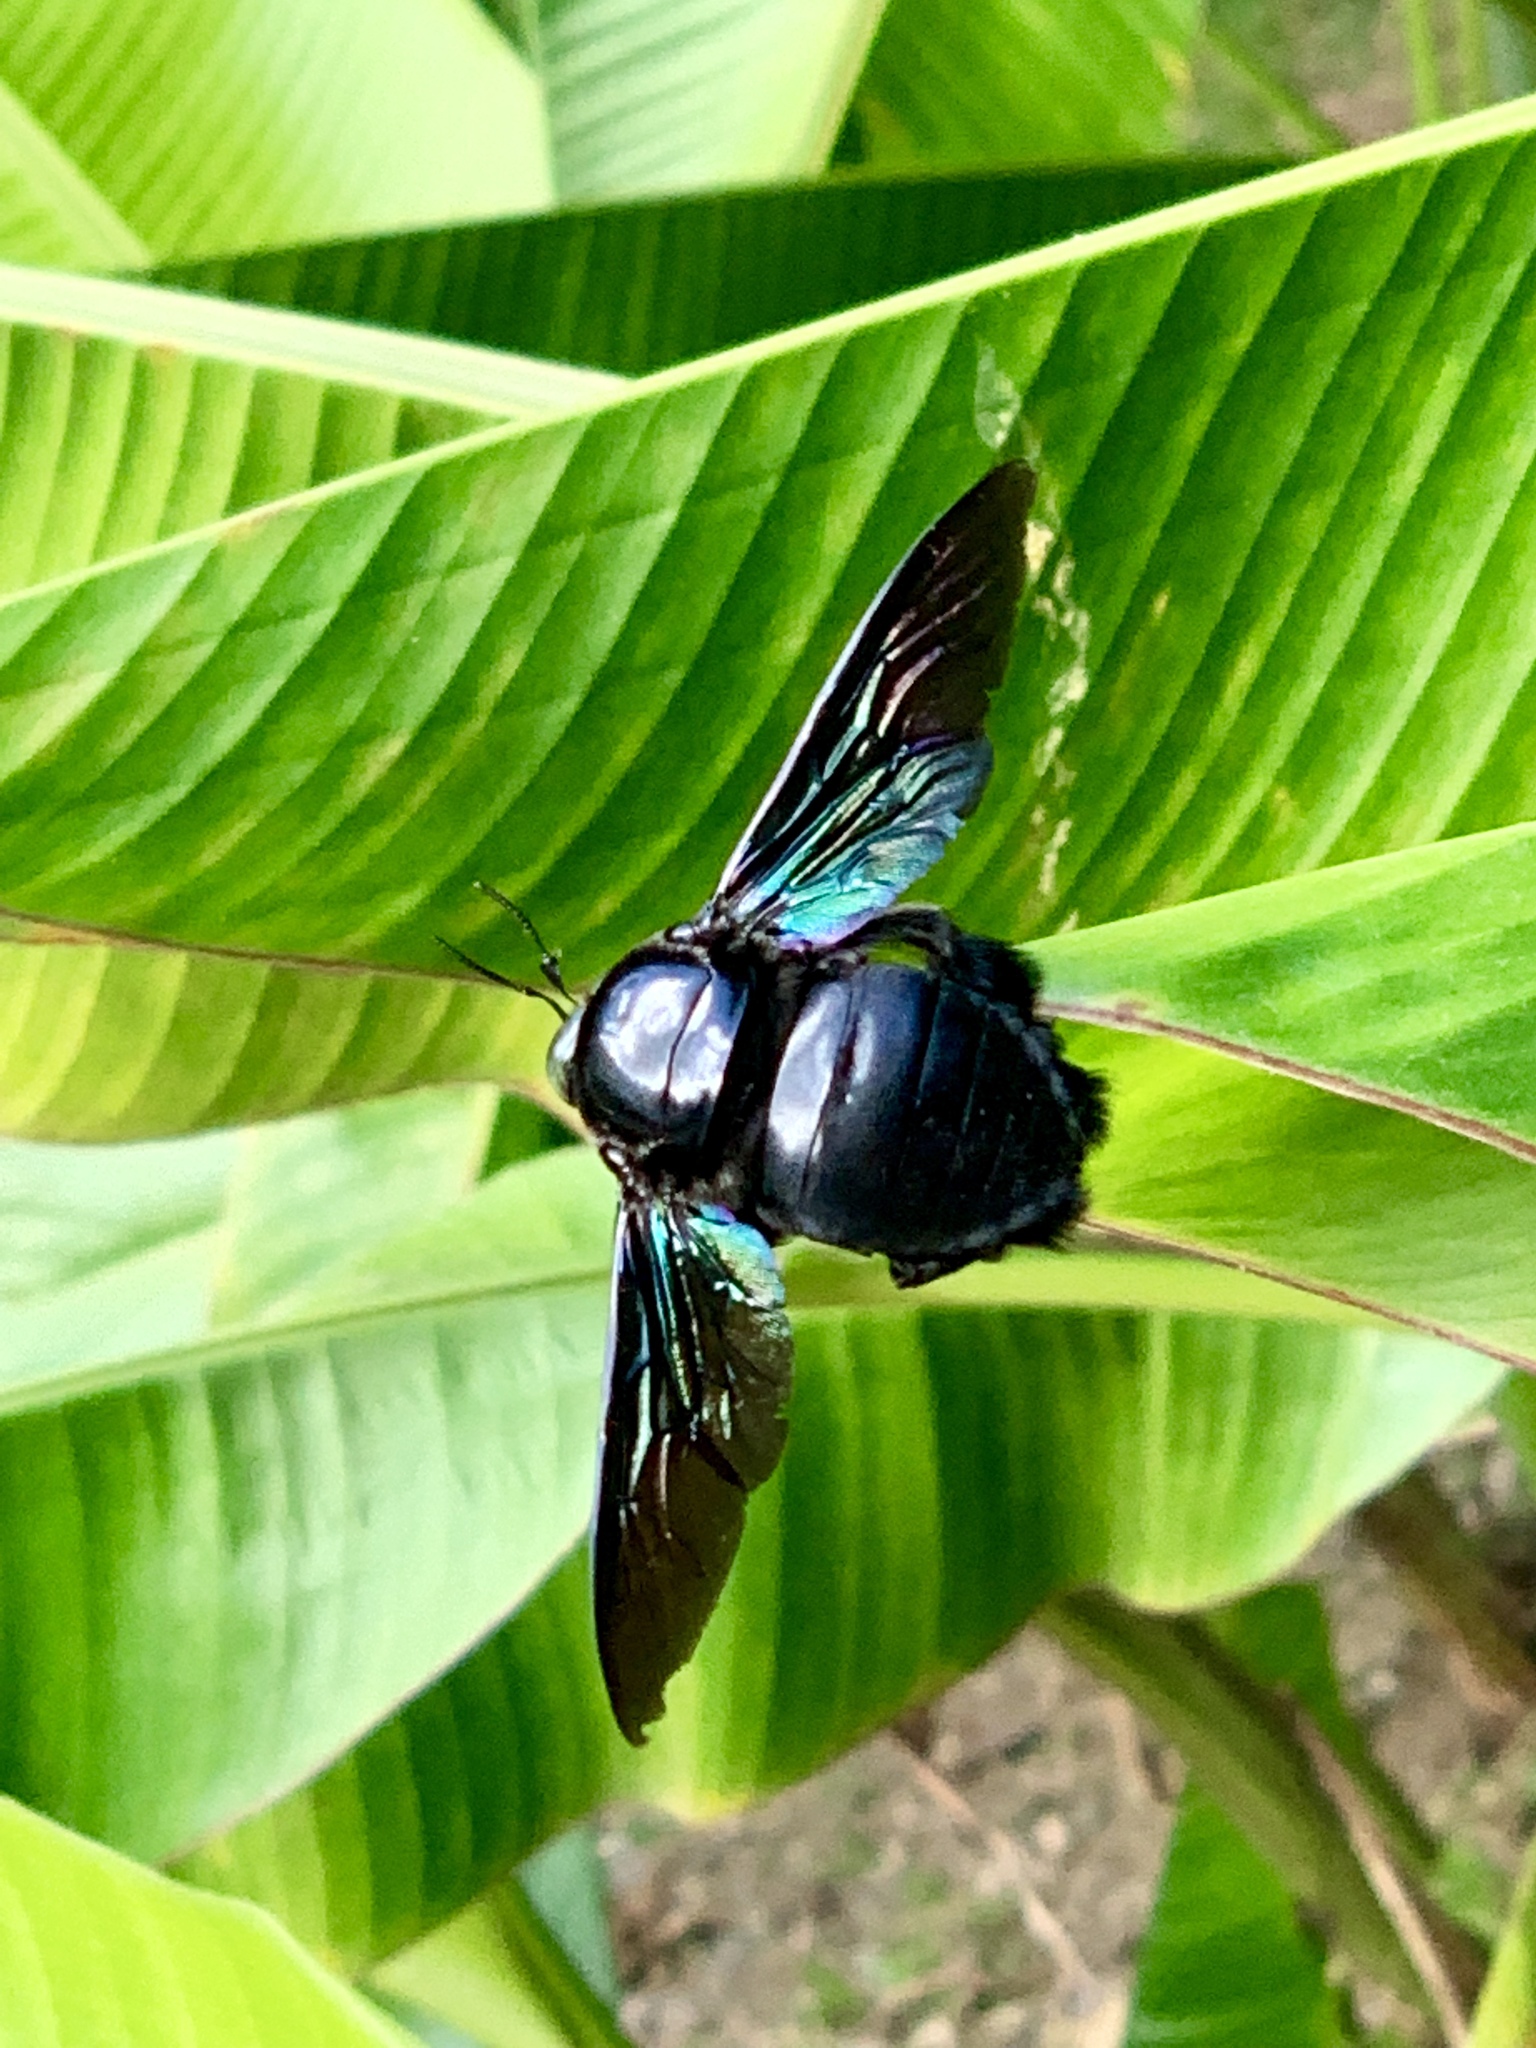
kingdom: Animalia
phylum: Arthropoda
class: Insecta
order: Hymenoptera
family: Apidae
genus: Xylocopa
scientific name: Xylocopa latipes
